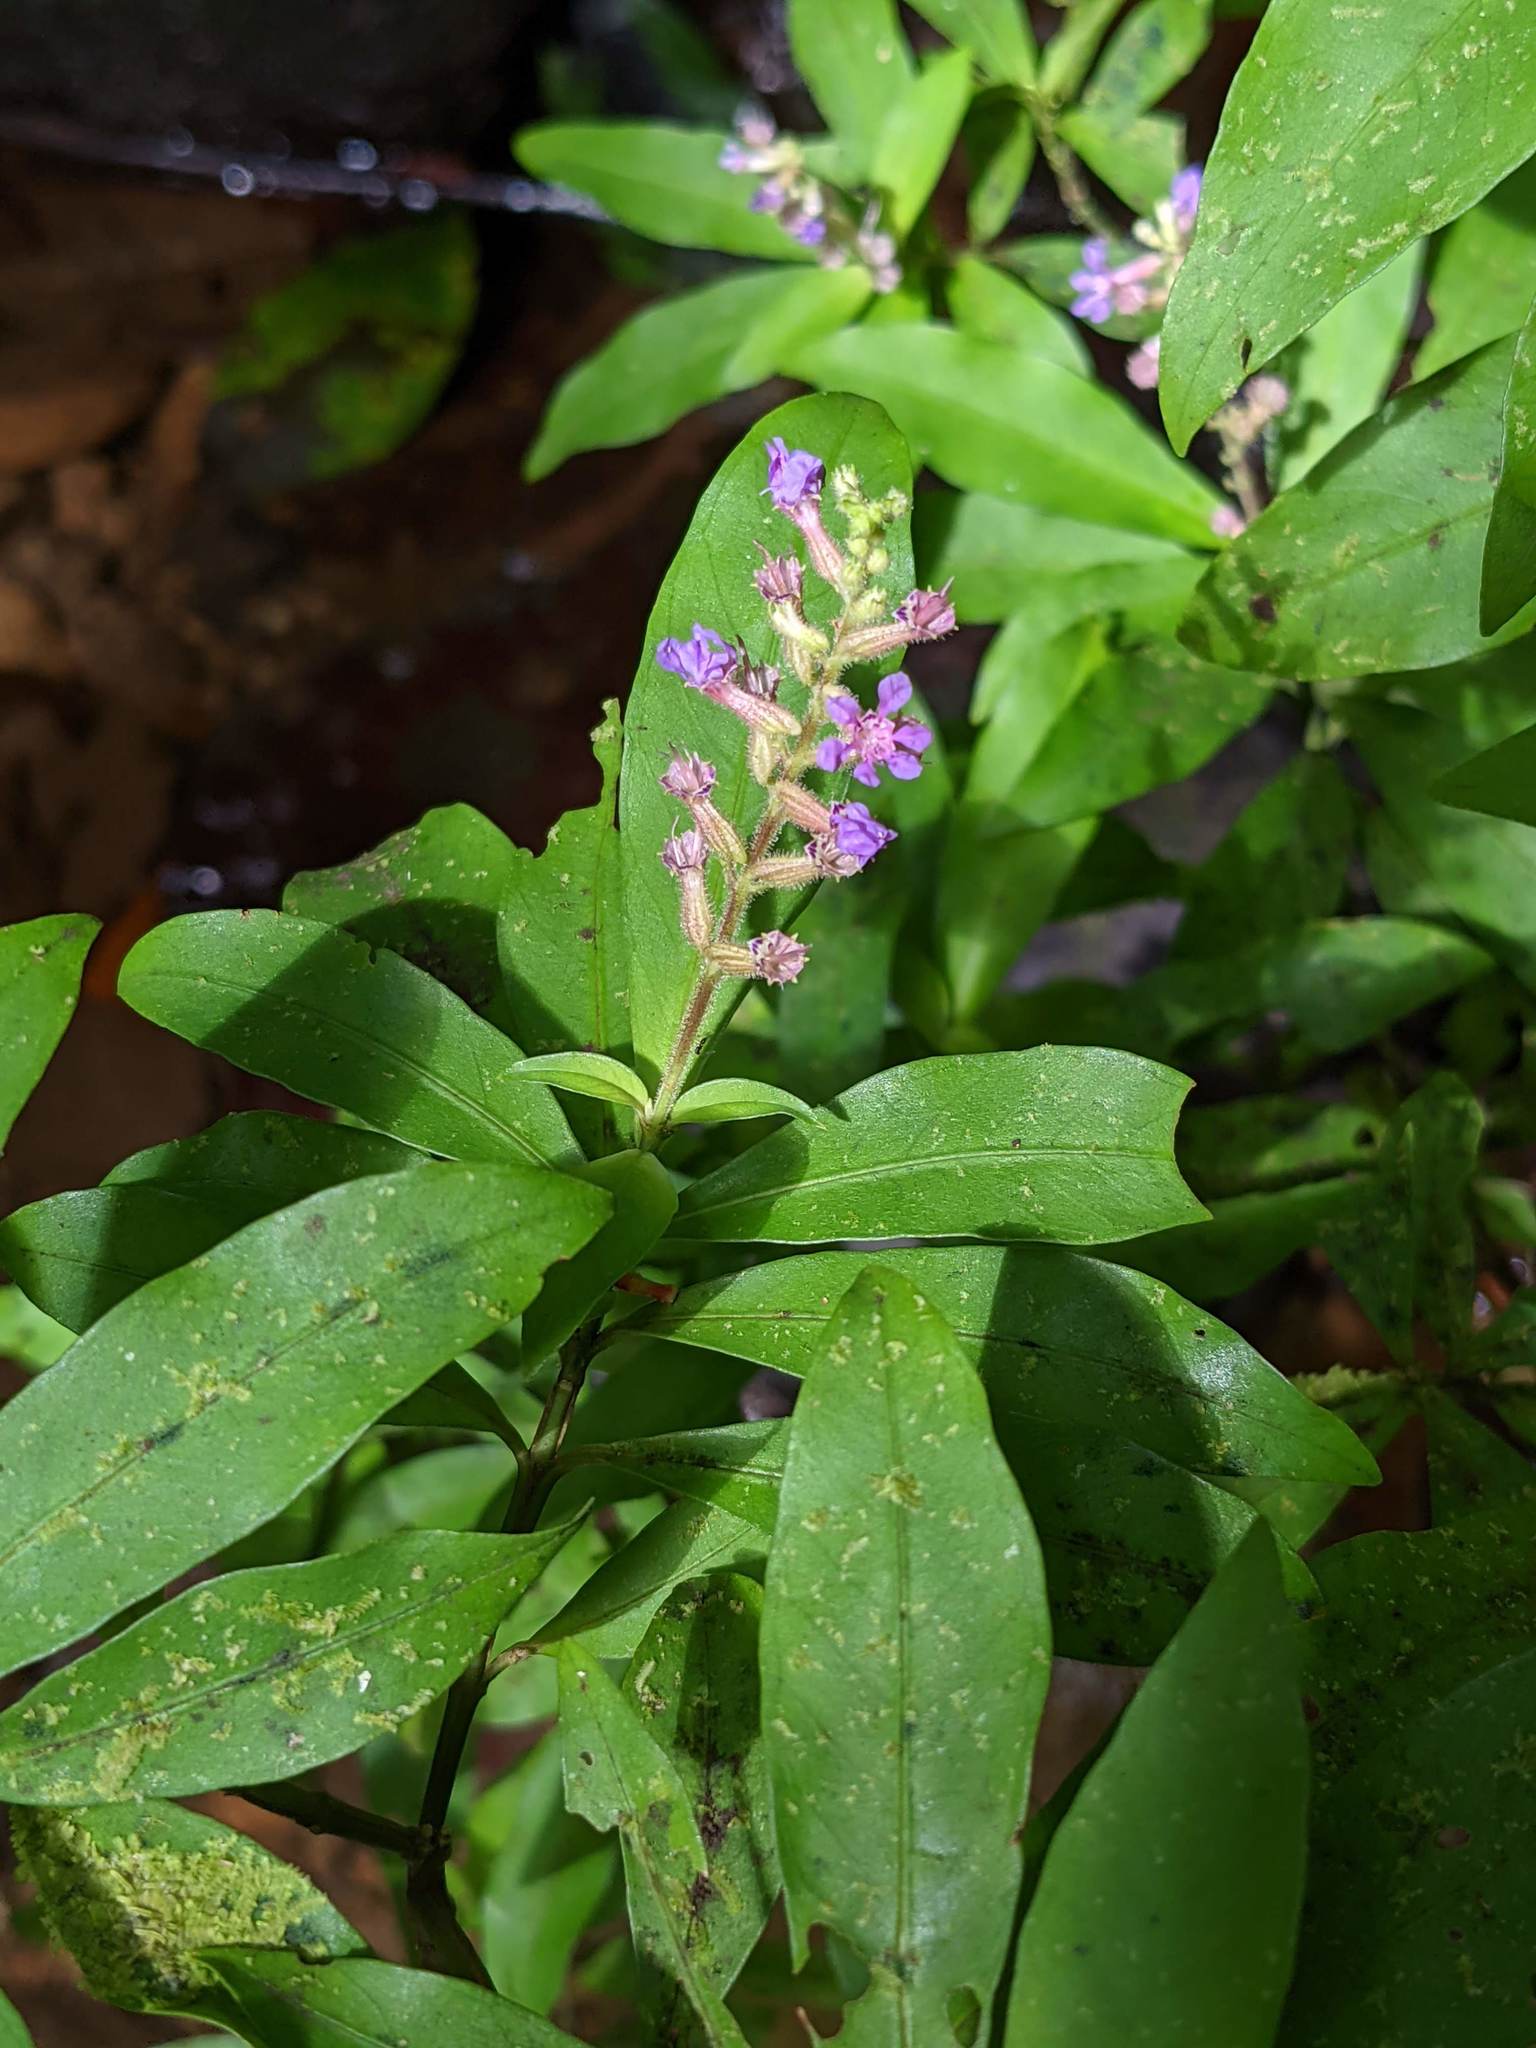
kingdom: Plantae
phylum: Tracheophyta
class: Magnoliopsida
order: Myrtales
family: Lythraceae
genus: Cuphea
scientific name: Cuphea epilobiifolia
